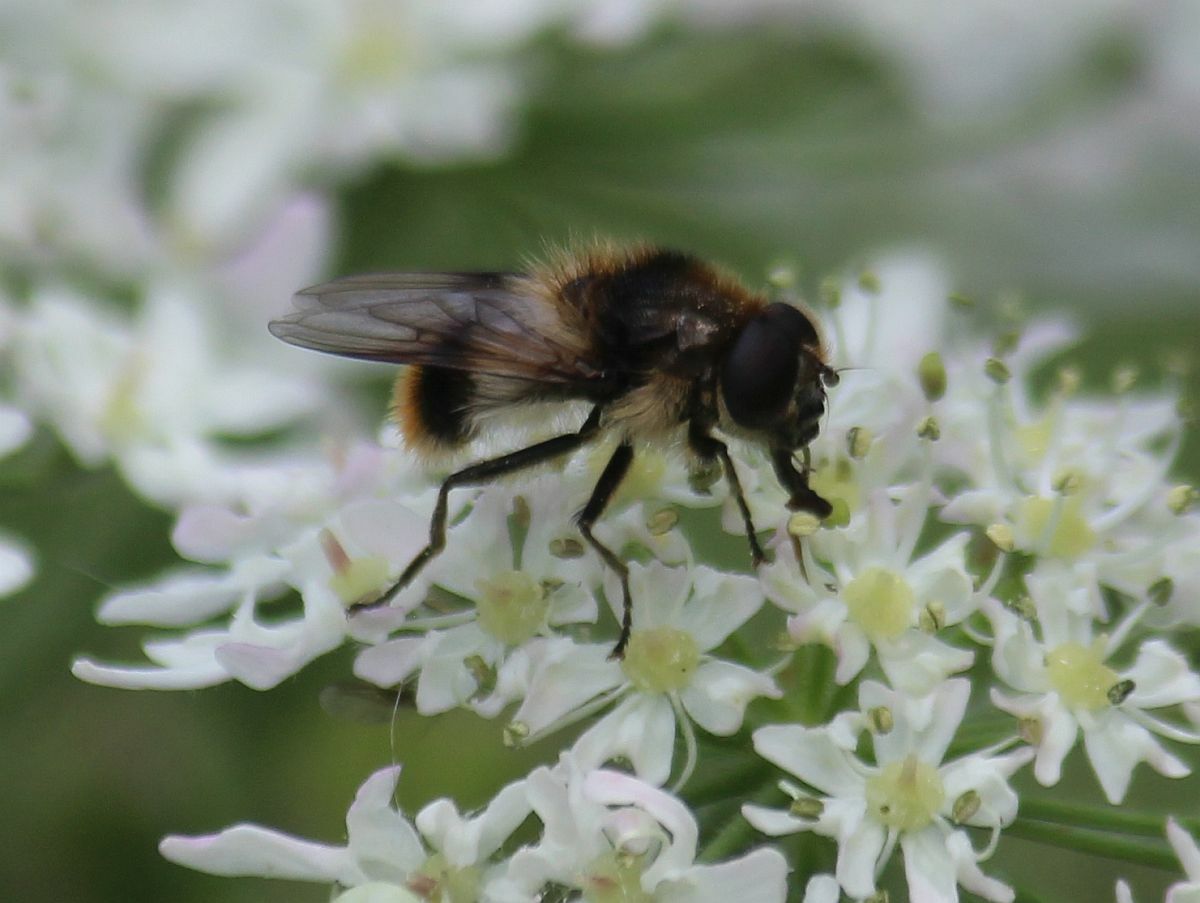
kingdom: Animalia
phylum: Arthropoda
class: Insecta
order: Diptera
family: Syrphidae
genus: Cheilosia
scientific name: Cheilosia illustrata
